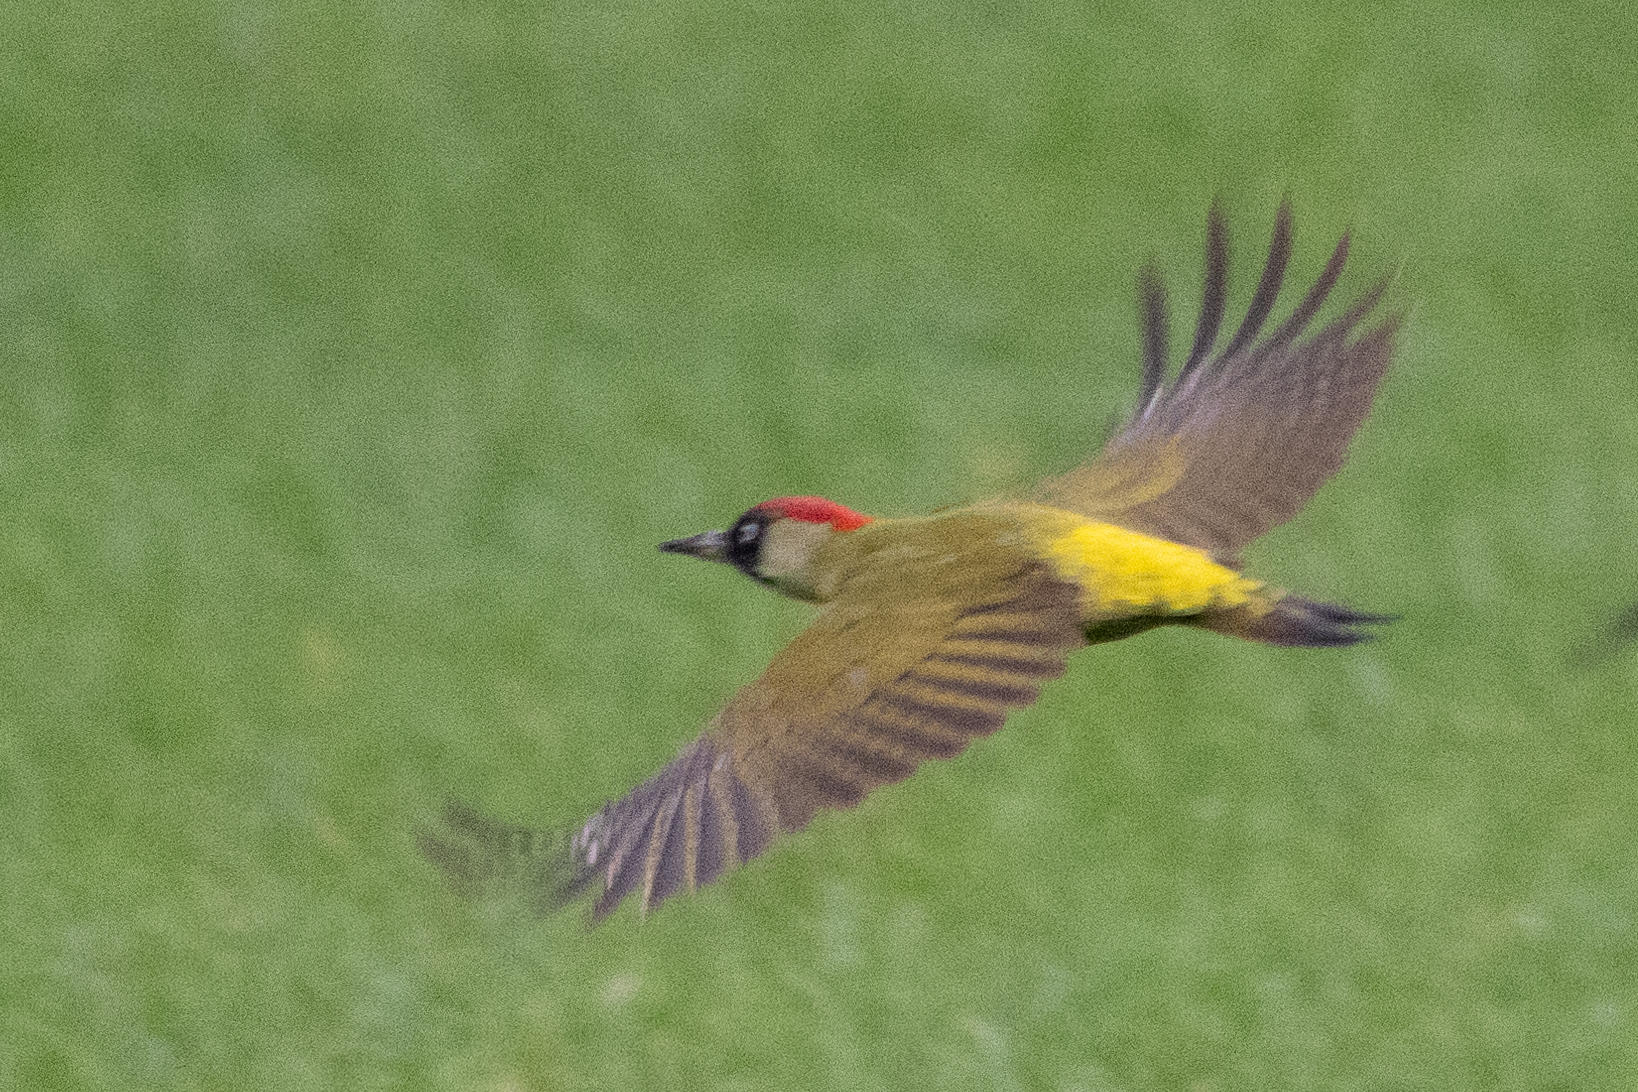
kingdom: Animalia
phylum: Chordata
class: Aves
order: Piciformes
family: Picidae
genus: Picus
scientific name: Picus viridis
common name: European green woodpecker
